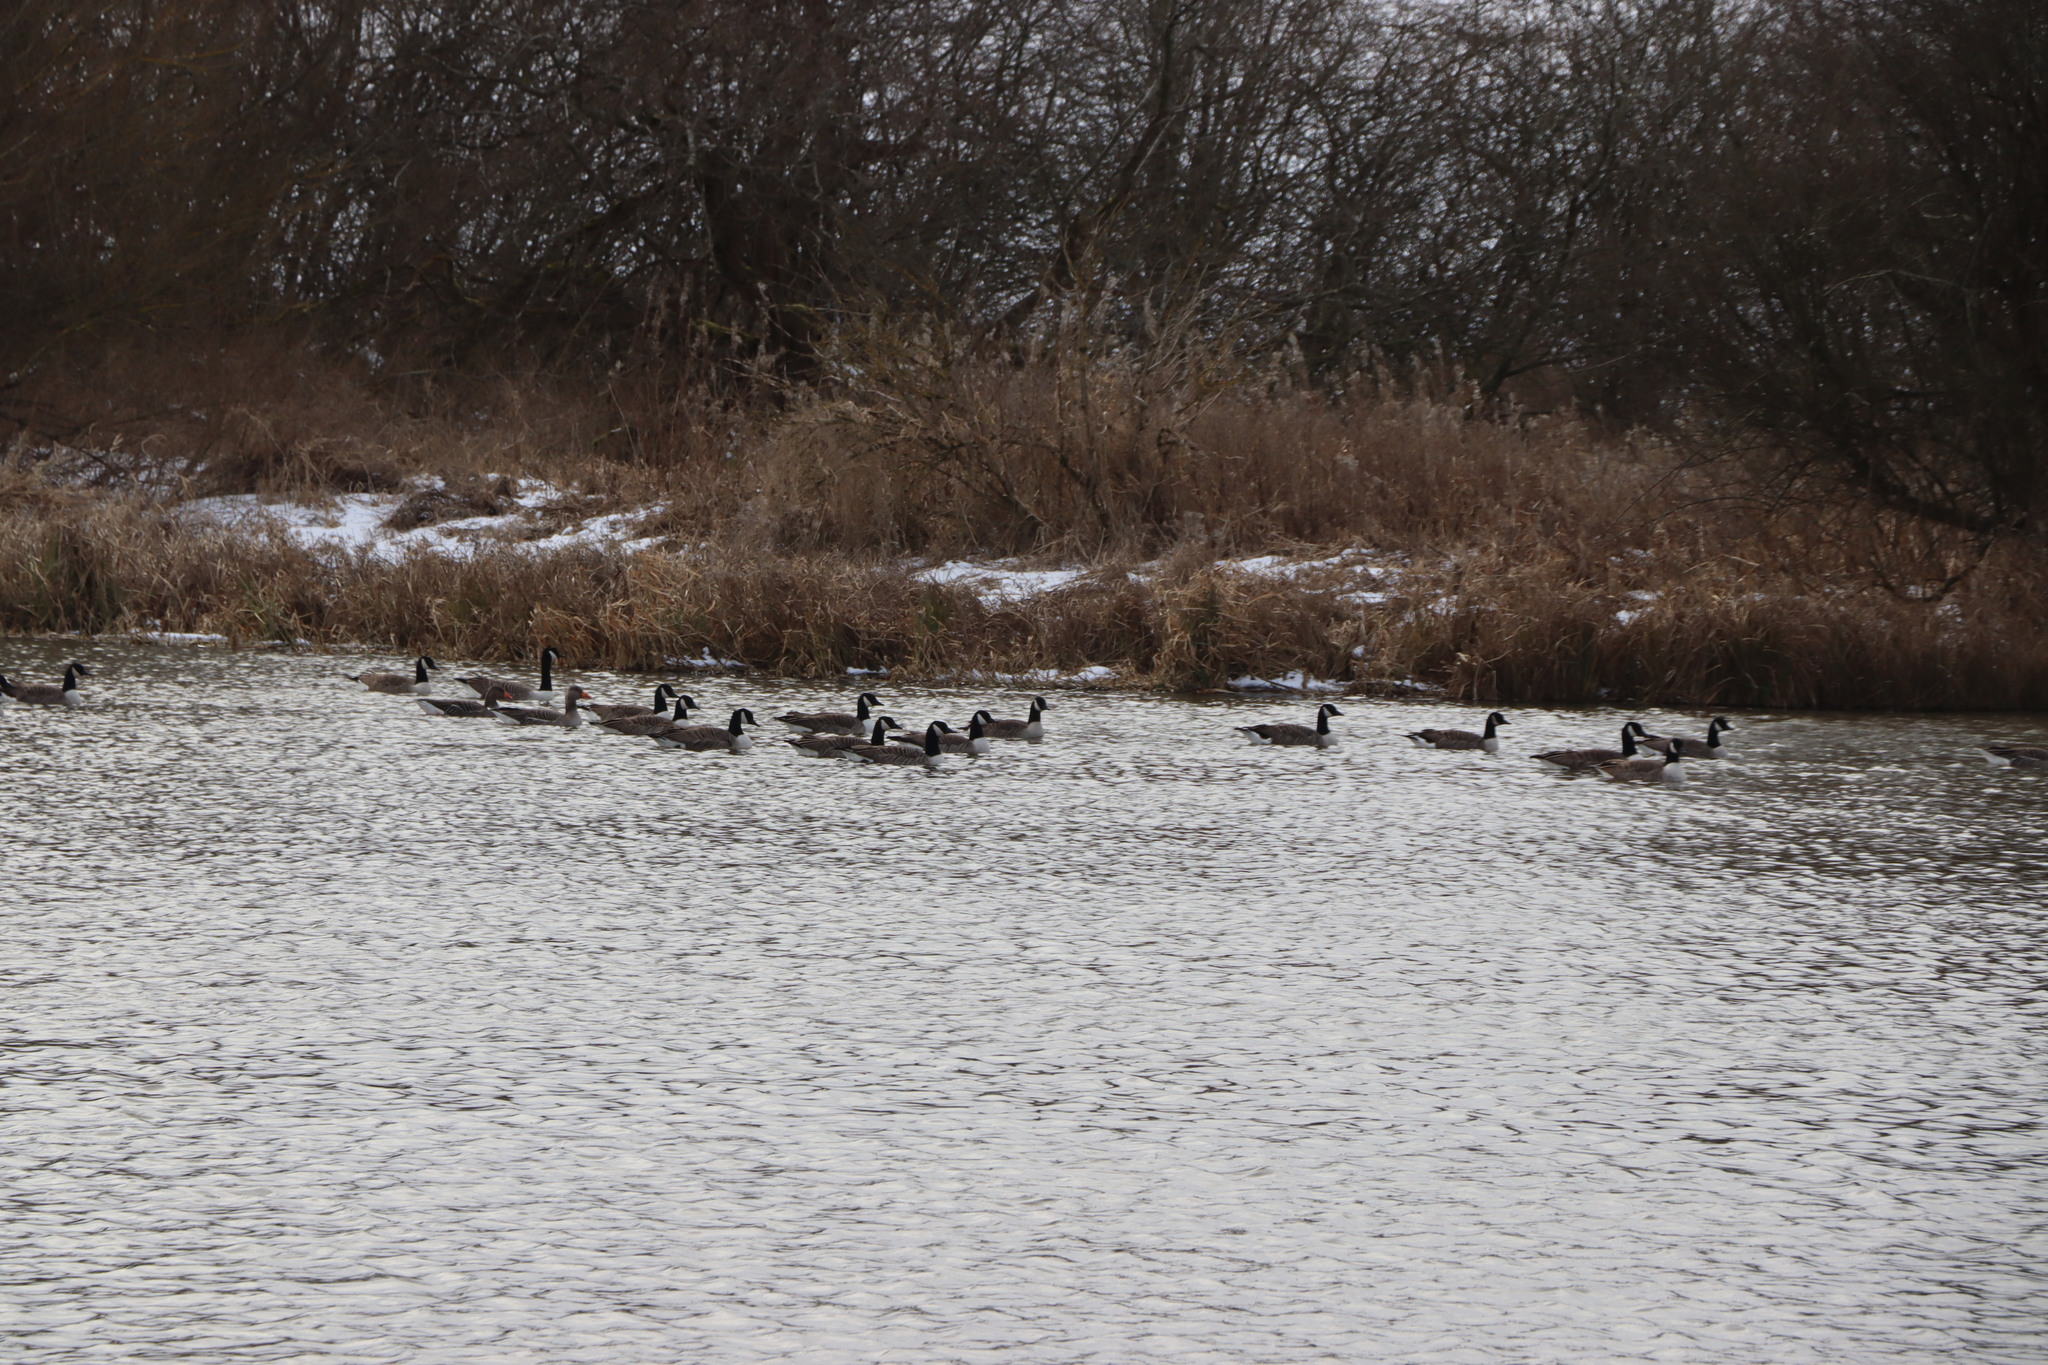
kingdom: Animalia
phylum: Chordata
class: Aves
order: Anseriformes
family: Anatidae
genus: Branta
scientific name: Branta canadensis
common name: Canada goose
